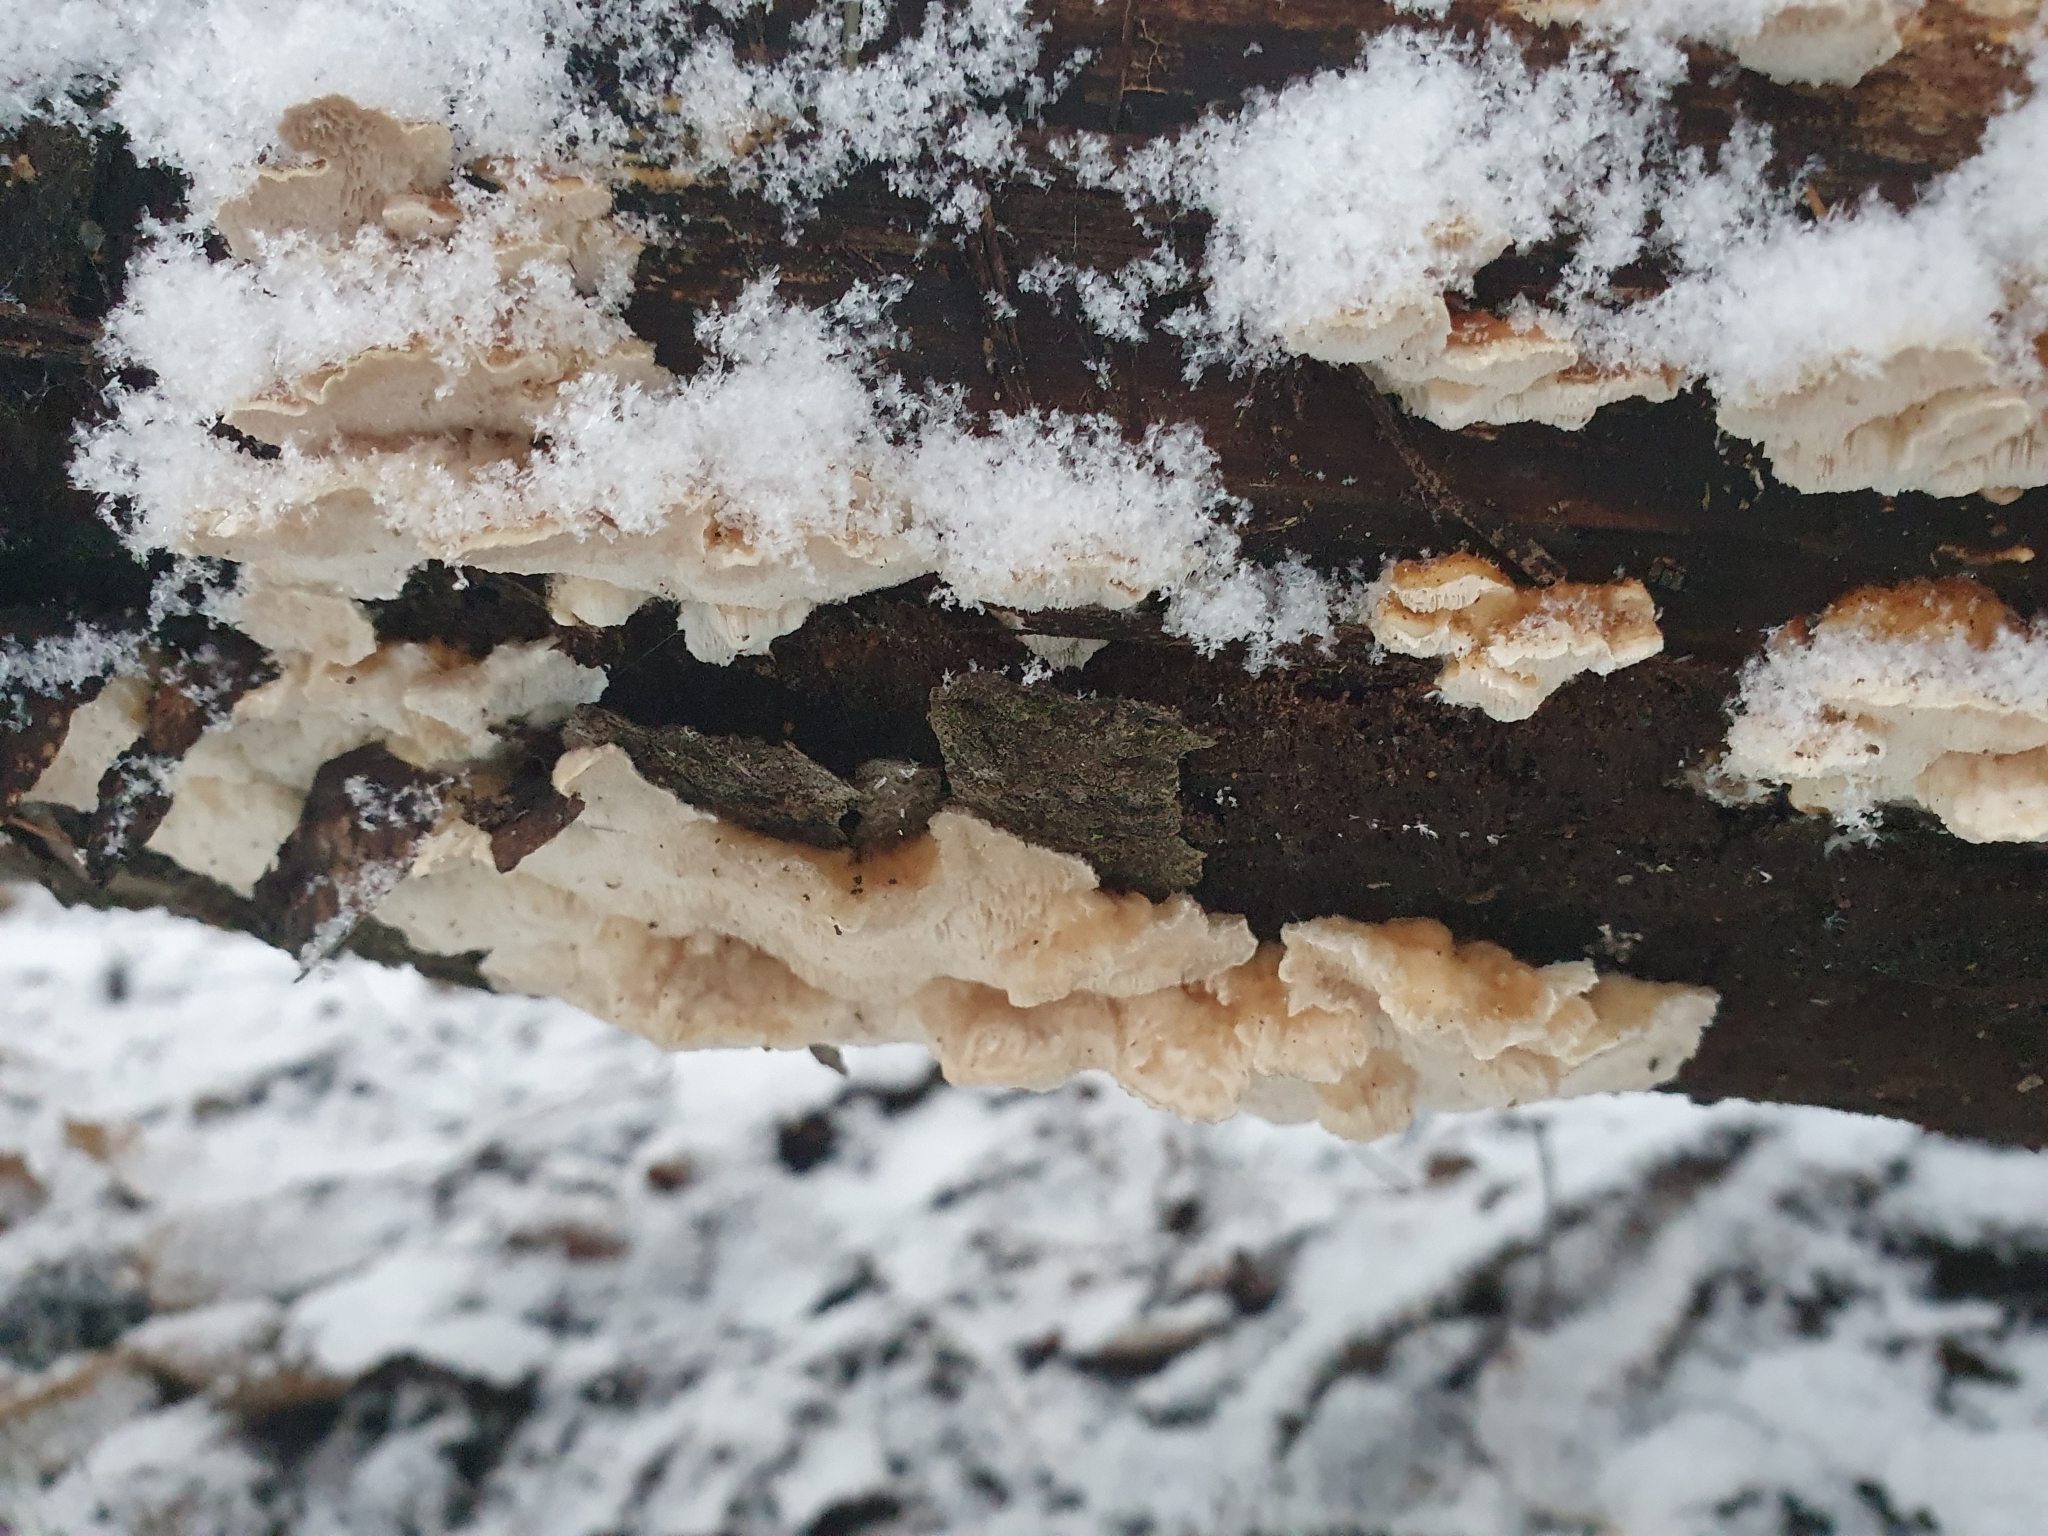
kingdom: Fungi
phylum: Basidiomycota
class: Agaricomycetes
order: Polyporales
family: Polyporaceae
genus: Trametes
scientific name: Trametes ochracea
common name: Ochre bracket
